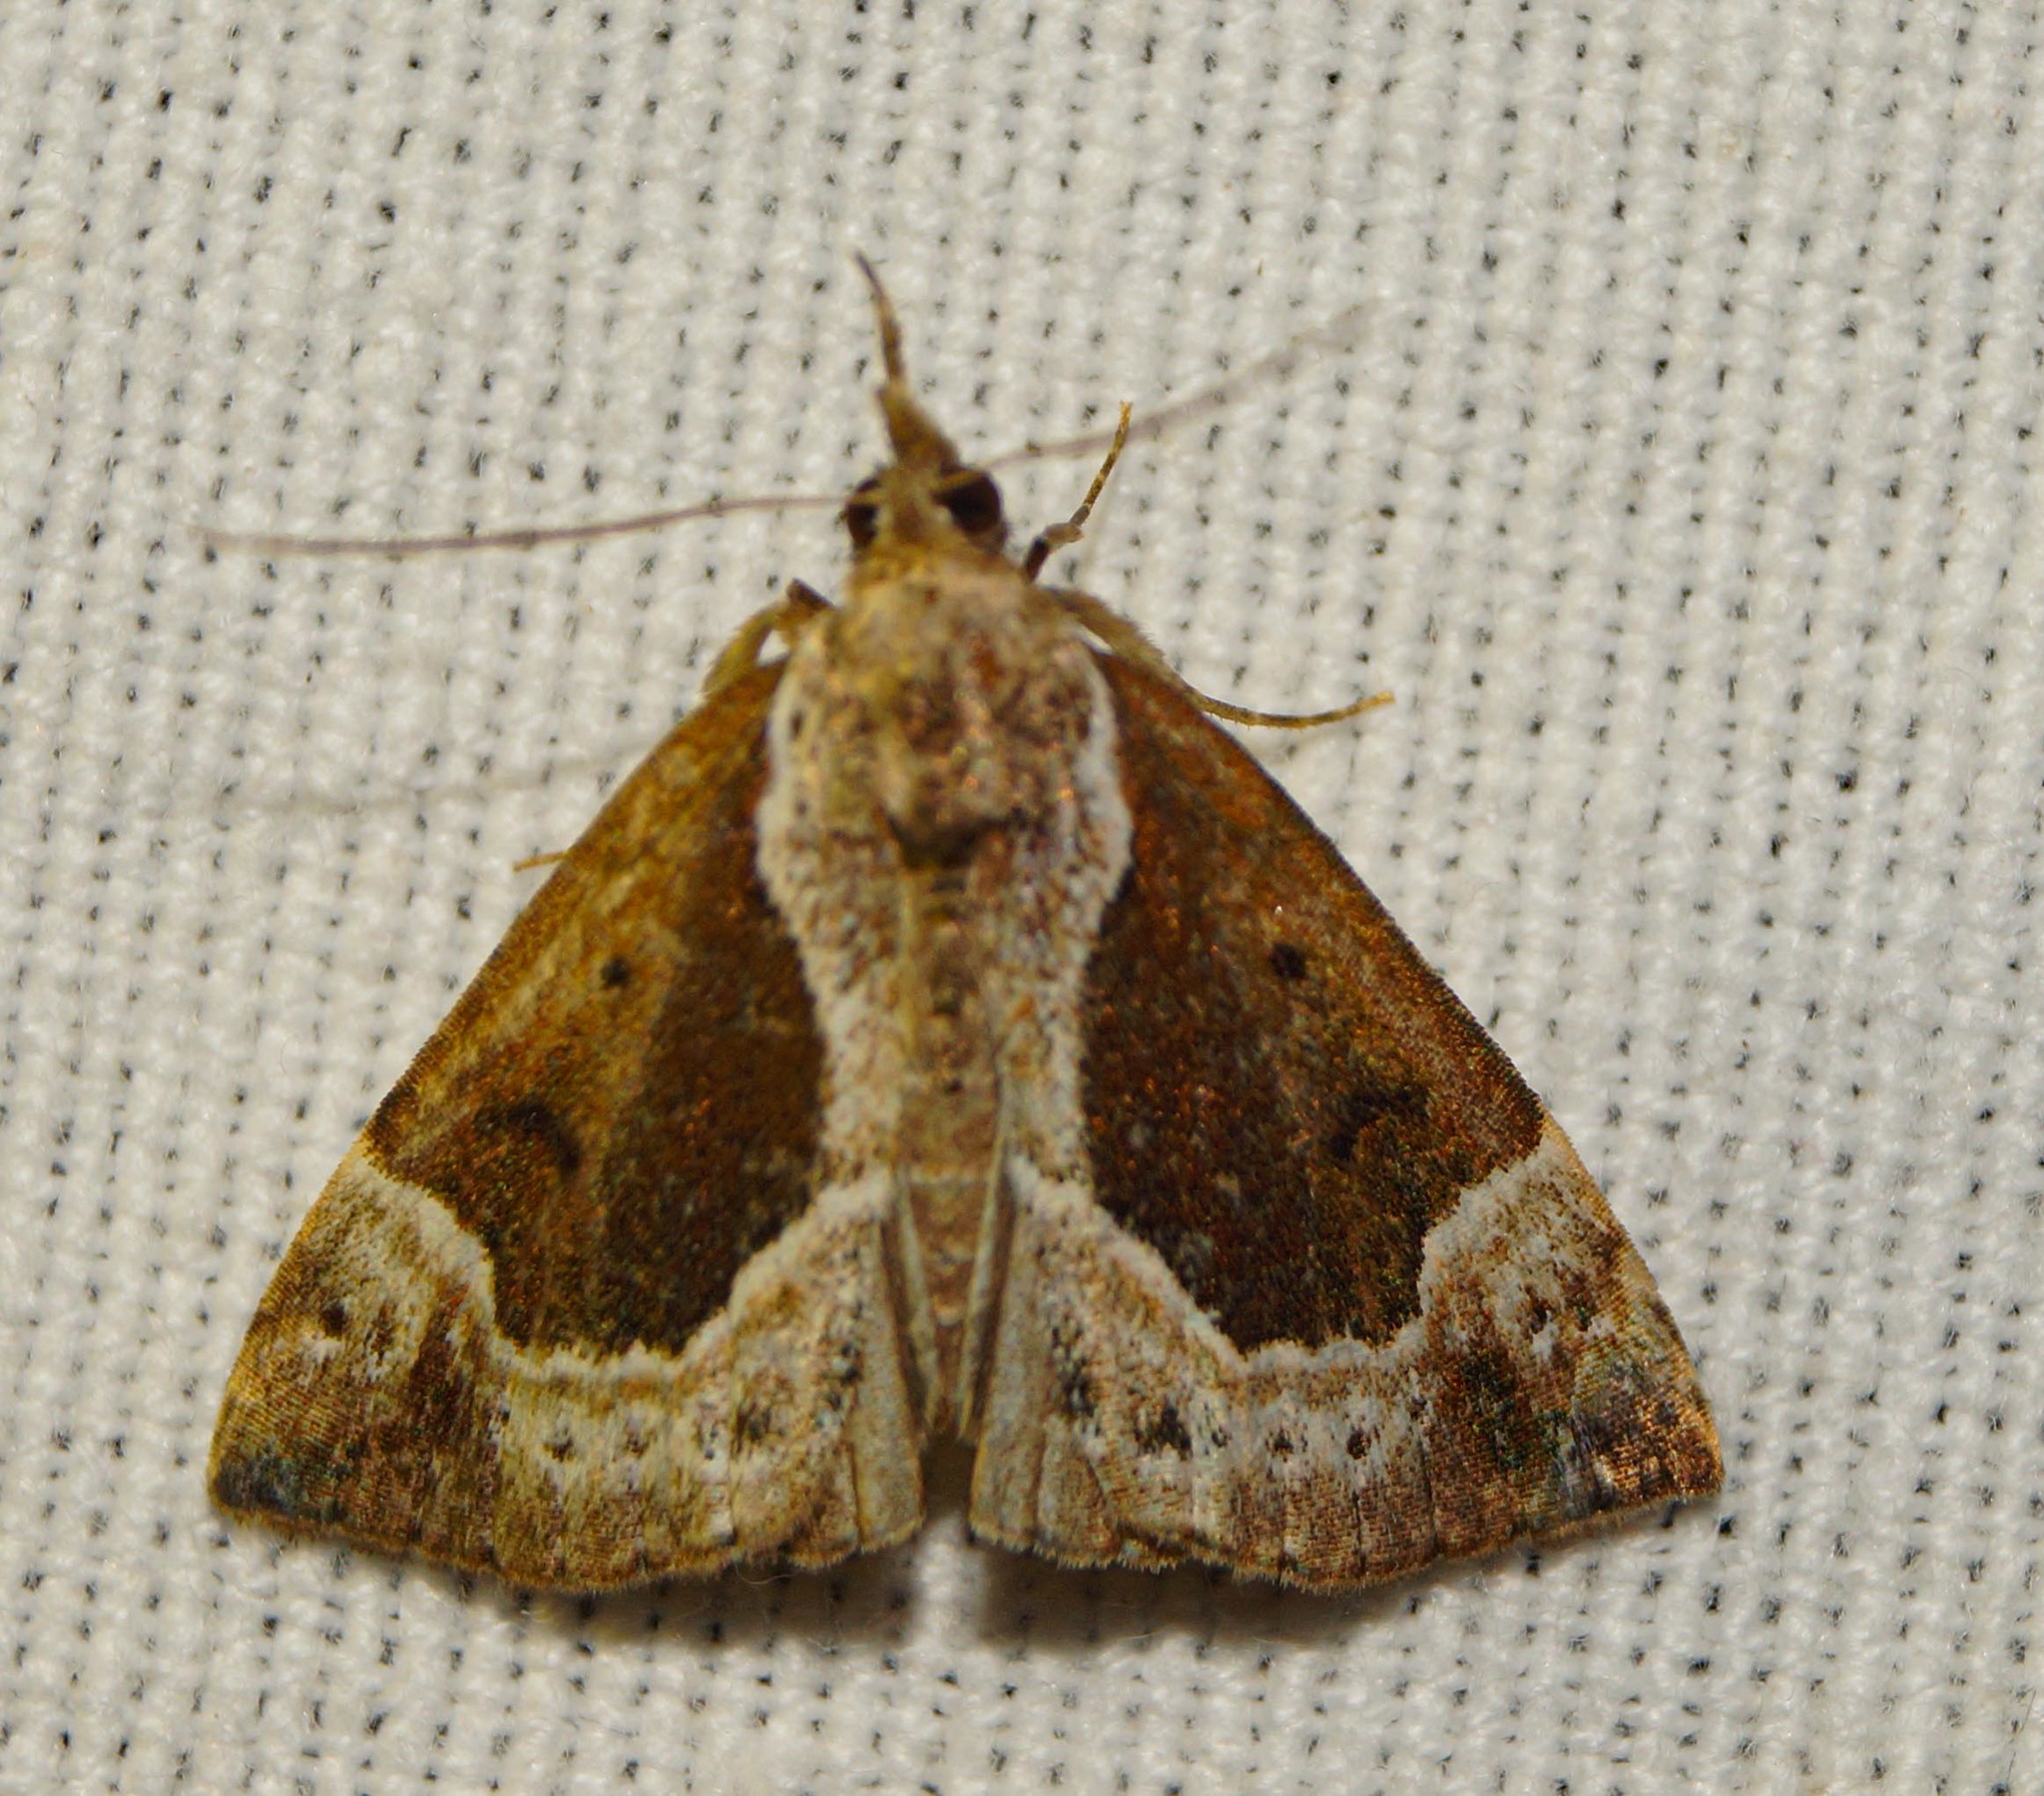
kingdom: Animalia
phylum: Arthropoda
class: Insecta
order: Lepidoptera
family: Erebidae
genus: Hypena
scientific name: Hypena crassalis
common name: Beautiful snout
